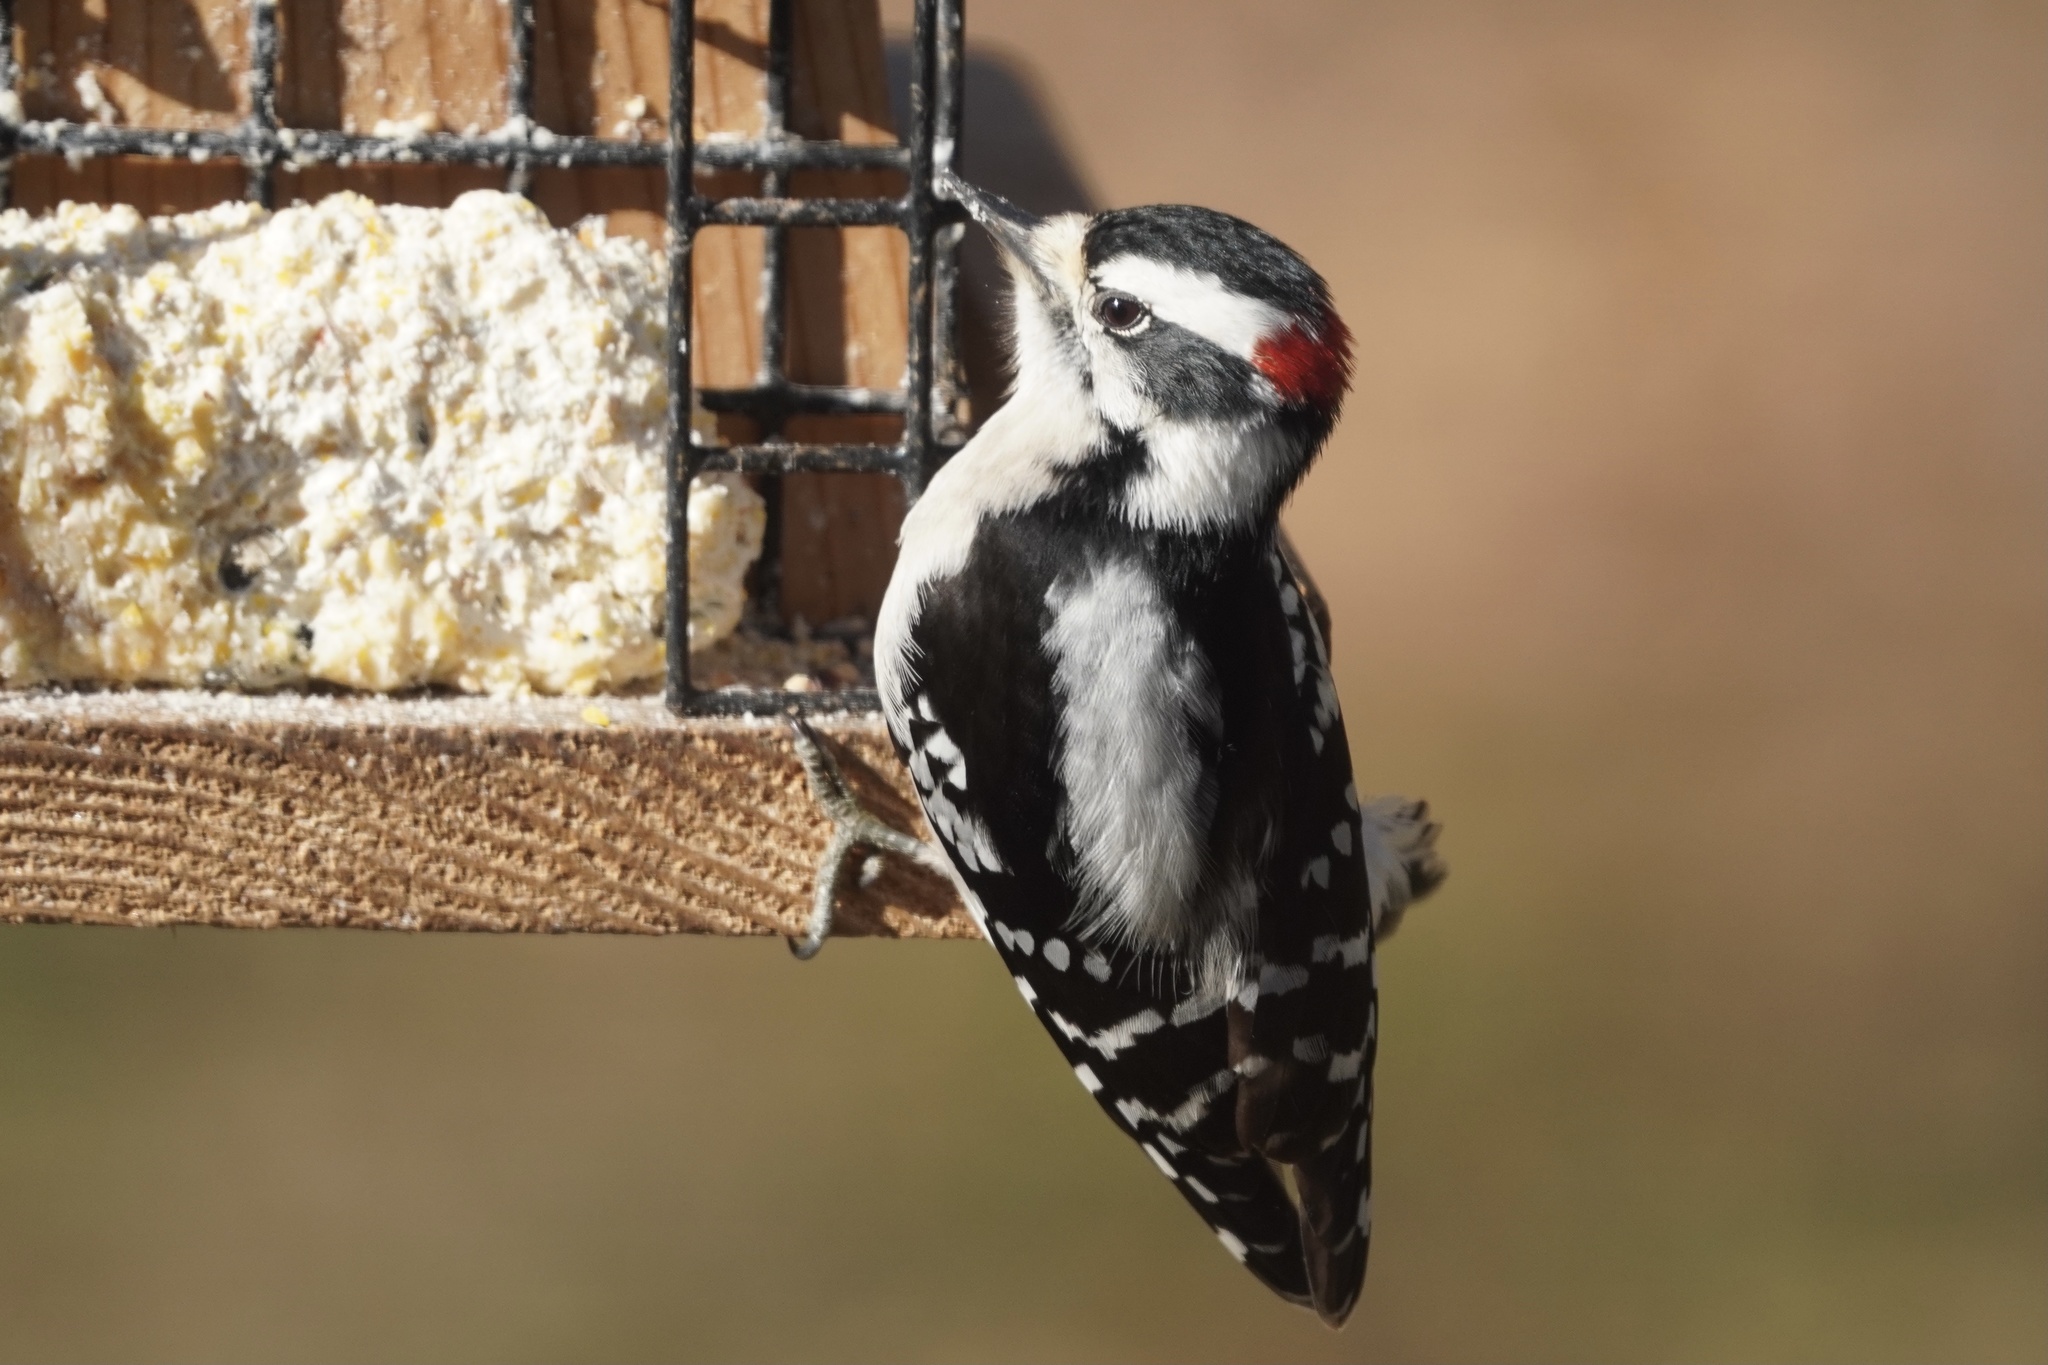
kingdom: Animalia
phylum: Chordata
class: Aves
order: Piciformes
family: Picidae
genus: Dryobates
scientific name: Dryobates pubescens
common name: Downy woodpecker
